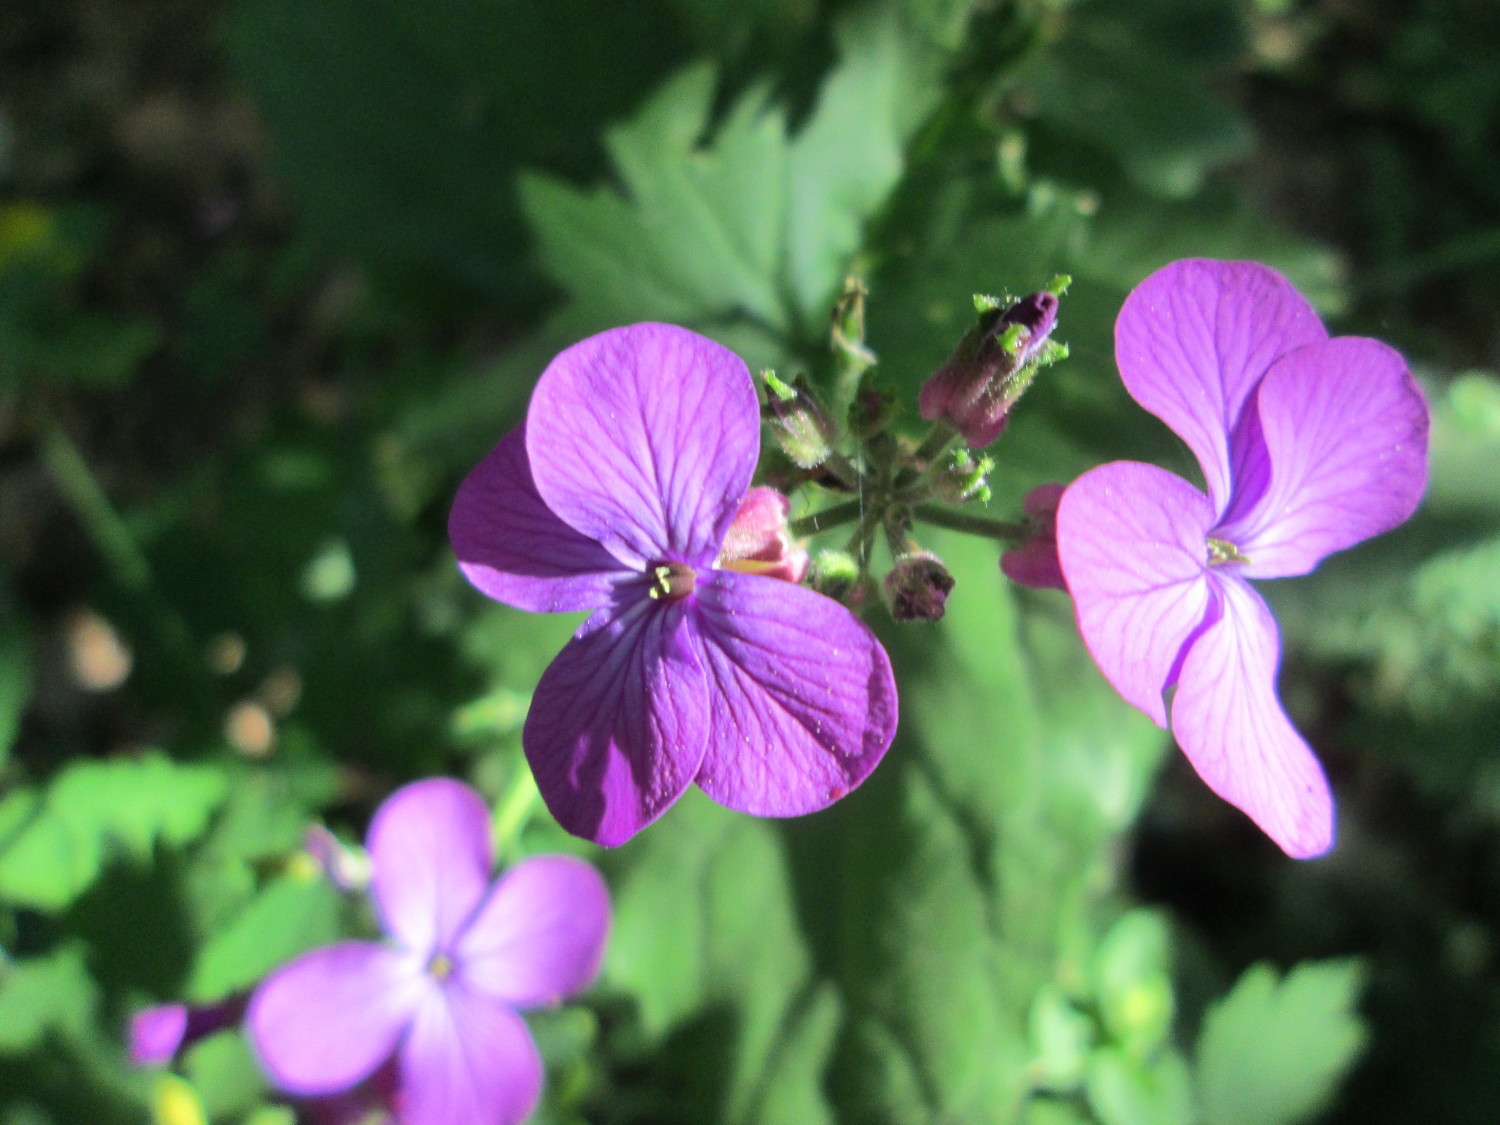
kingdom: Plantae
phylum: Tracheophyta
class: Magnoliopsida
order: Brassicales
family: Brassicaceae
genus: Lunaria
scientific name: Lunaria annua
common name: Honesty
